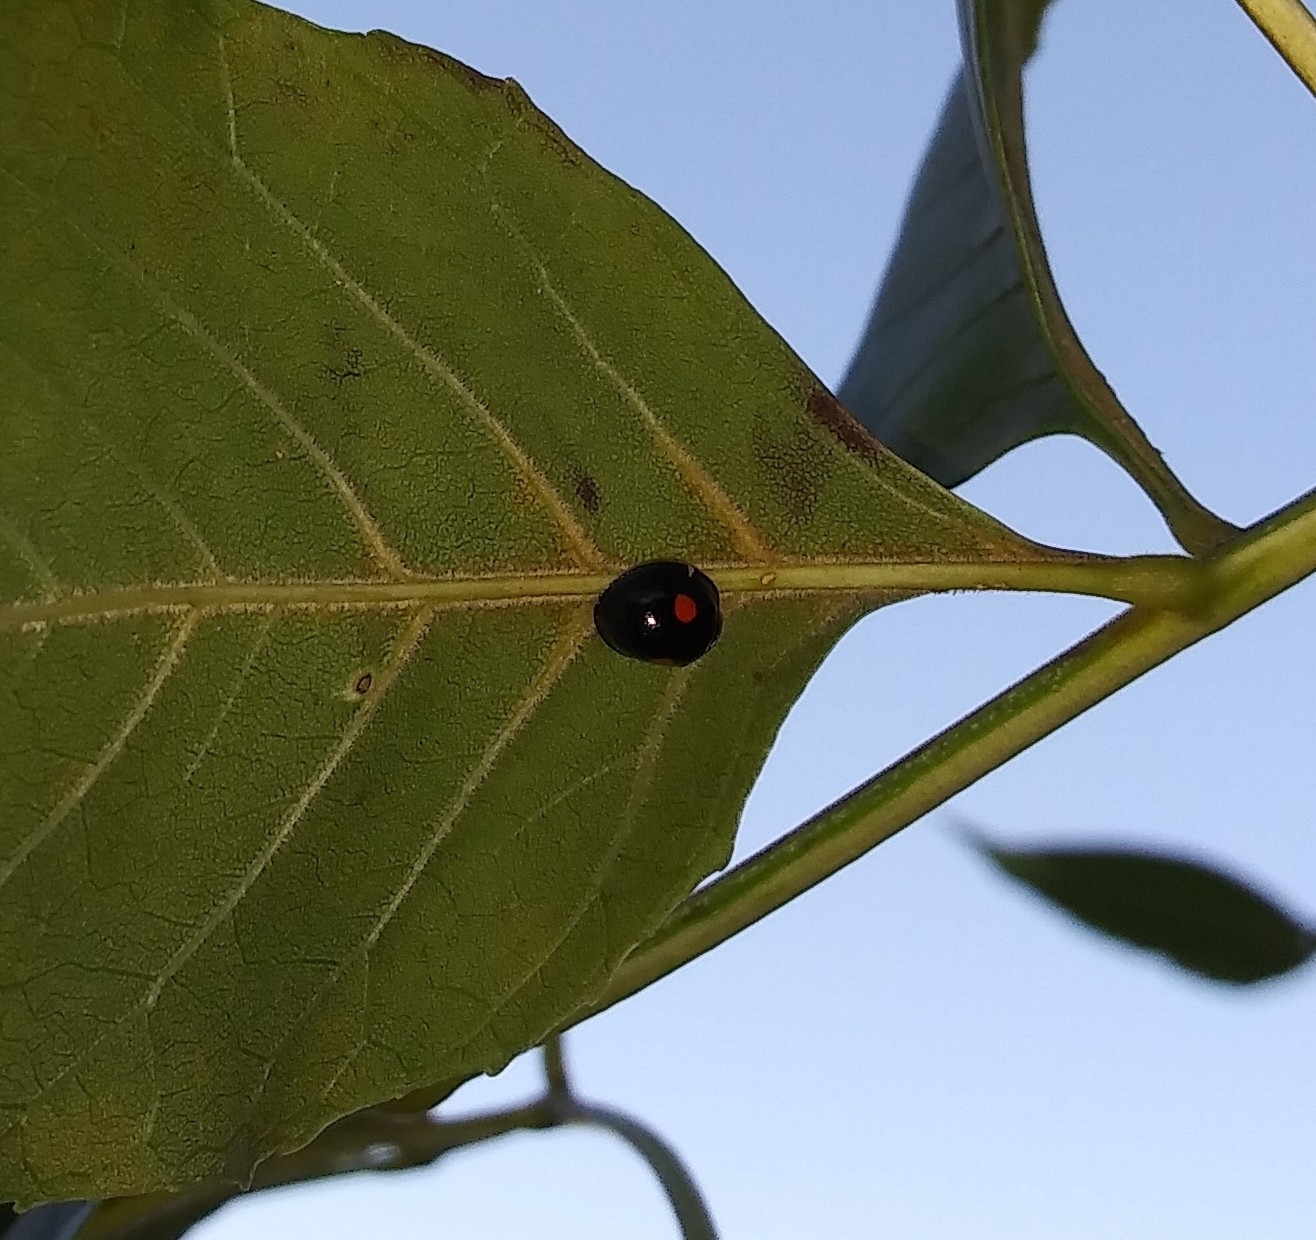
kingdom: Animalia
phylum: Arthropoda
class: Insecta
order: Coleoptera
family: Coccinellidae
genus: Chilocorus
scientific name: Chilocorus stigma
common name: Twicestabbed lady beetle
